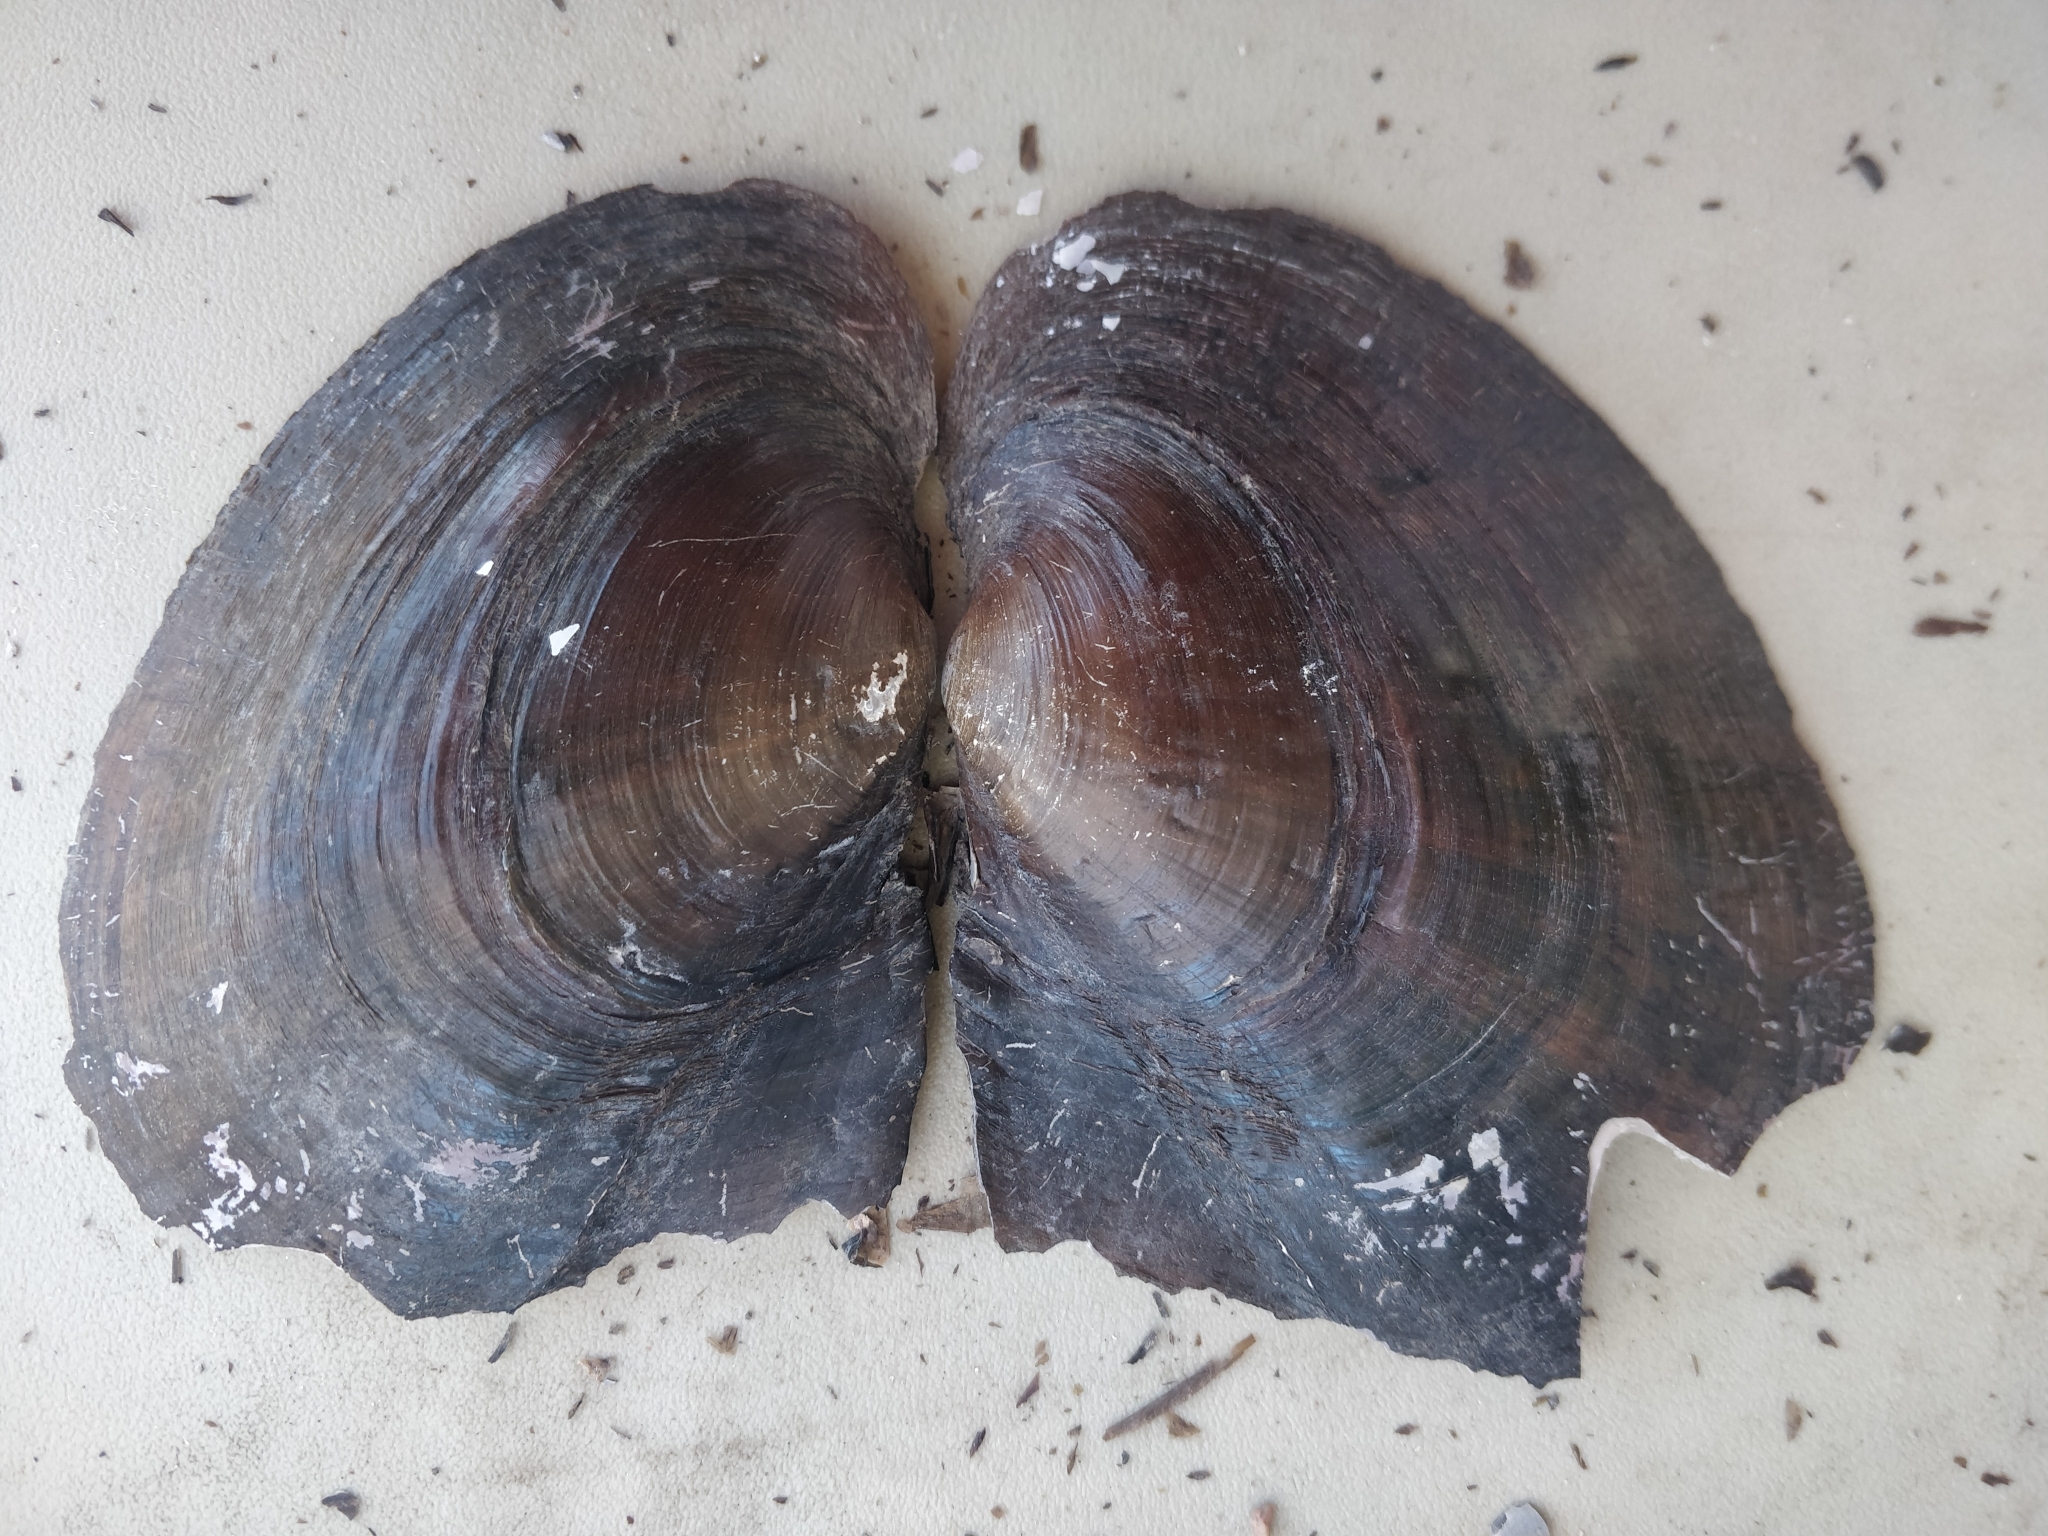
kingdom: Animalia
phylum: Mollusca
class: Bivalvia
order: Unionida
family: Unionidae
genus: Potamilus
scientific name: Potamilus alatus
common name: Pink heelsplitter
